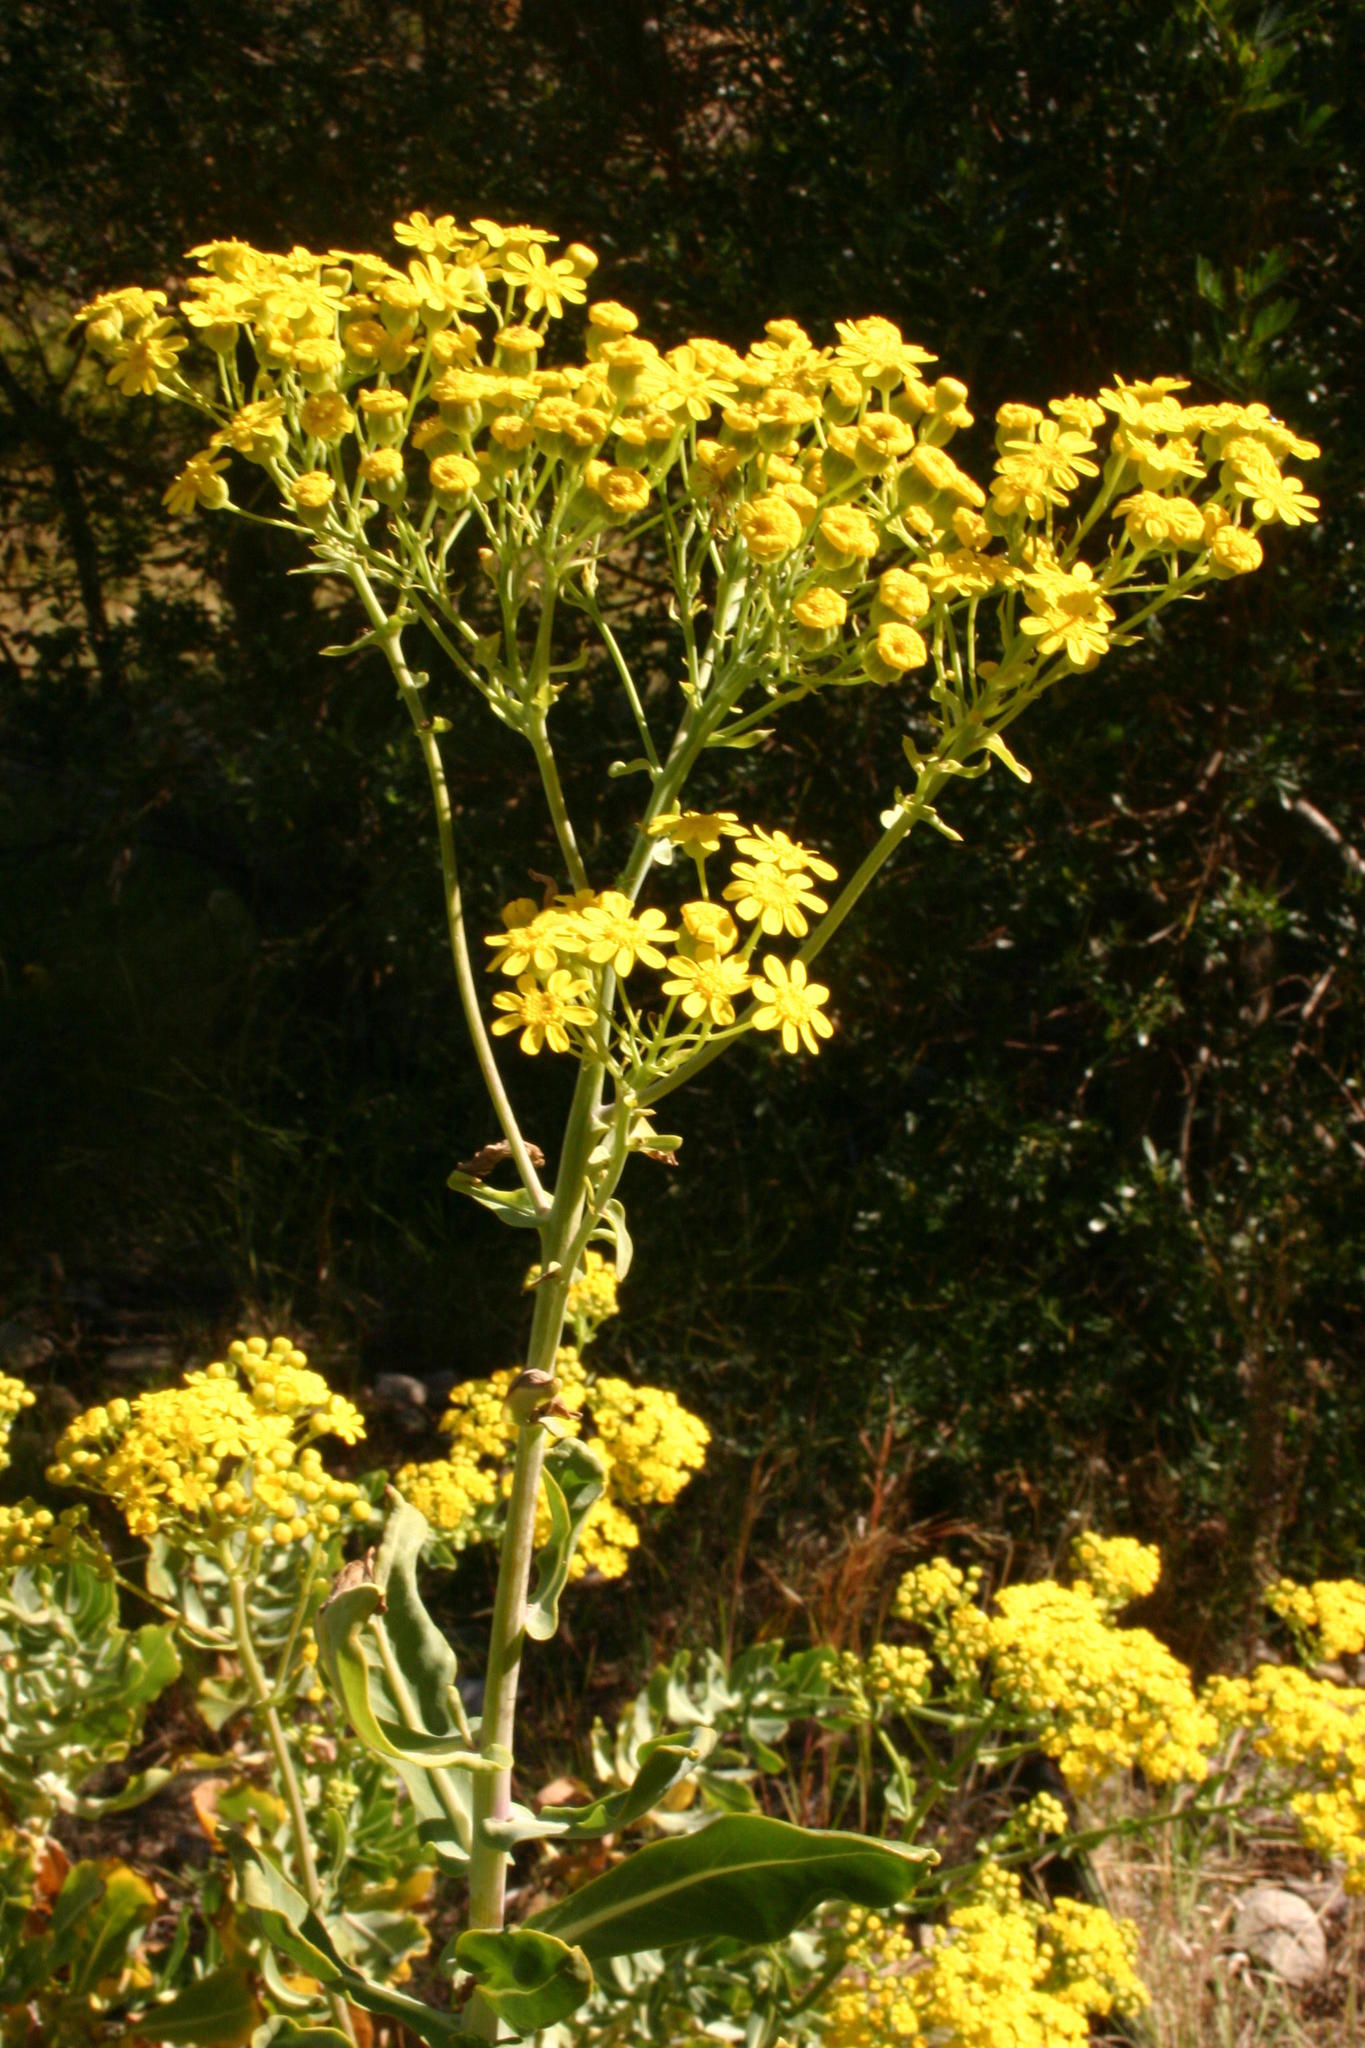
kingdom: Plantae
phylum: Tracheophyta
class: Magnoliopsida
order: Asterales
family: Asteraceae
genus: Othonna
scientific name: Othonna parviflora
